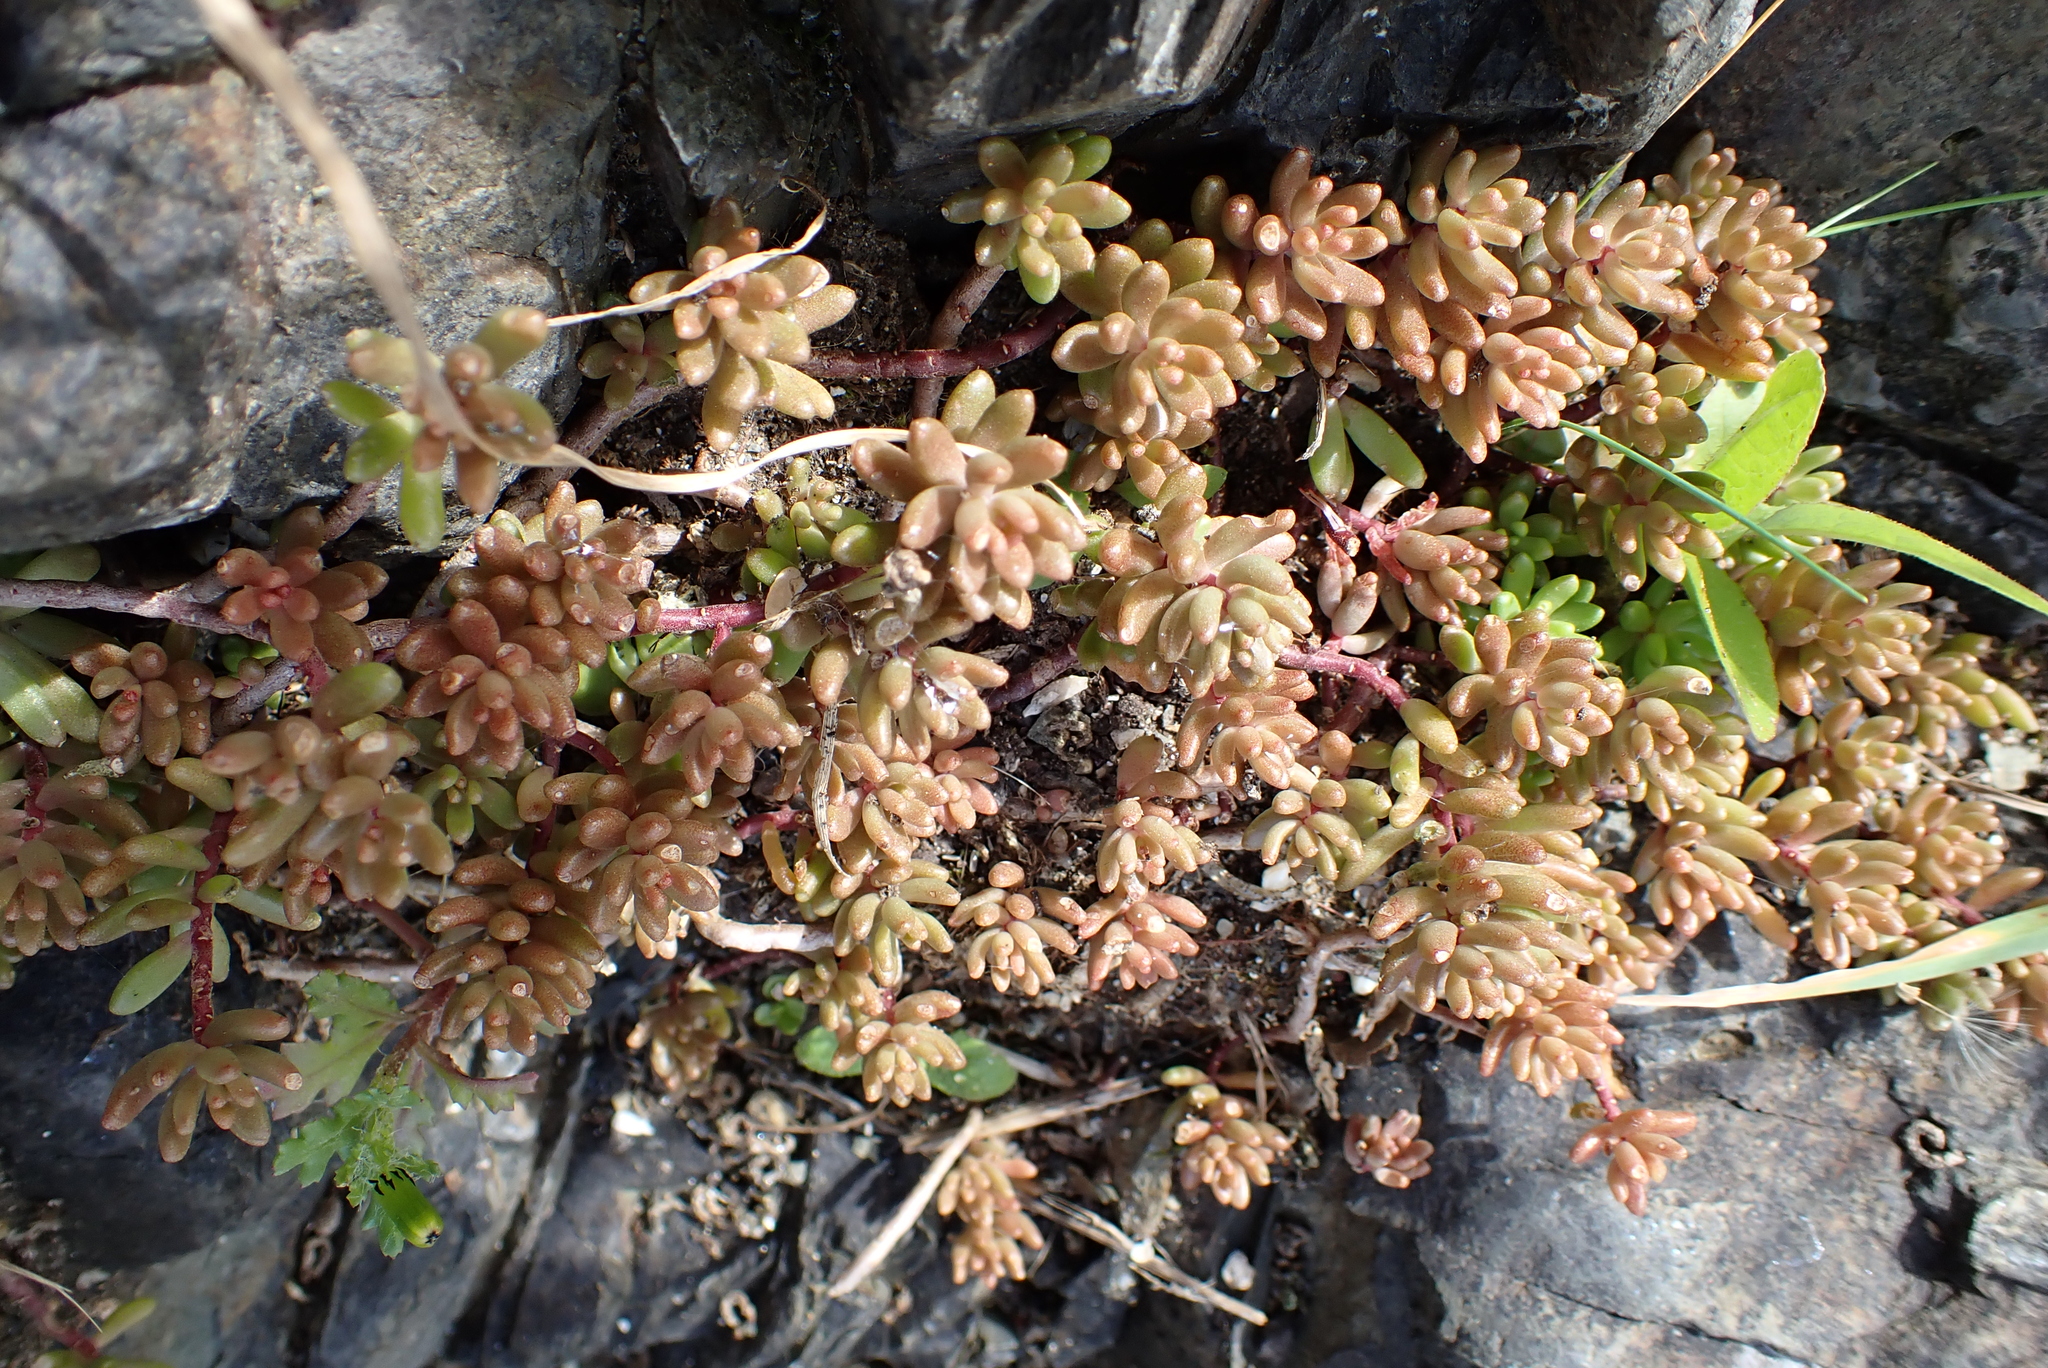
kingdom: Plantae
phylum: Tracheophyta
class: Magnoliopsida
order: Saxifragales
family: Crassulaceae
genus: Sedum
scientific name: Sedum album
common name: White stonecrop
